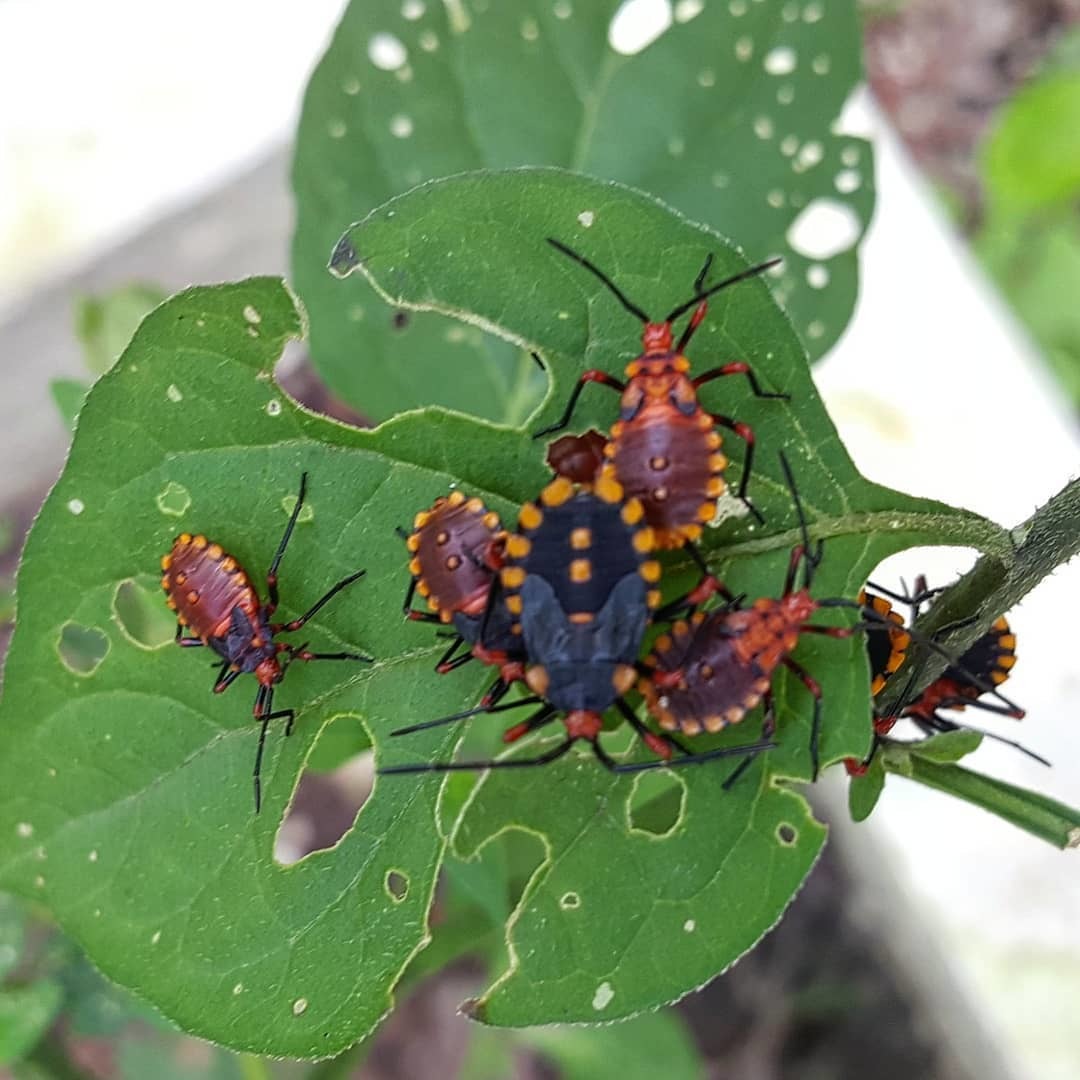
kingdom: Animalia
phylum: Arthropoda
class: Insecta
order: Hemiptera
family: Coreidae
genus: Spartocera
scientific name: Spartocera fusca
